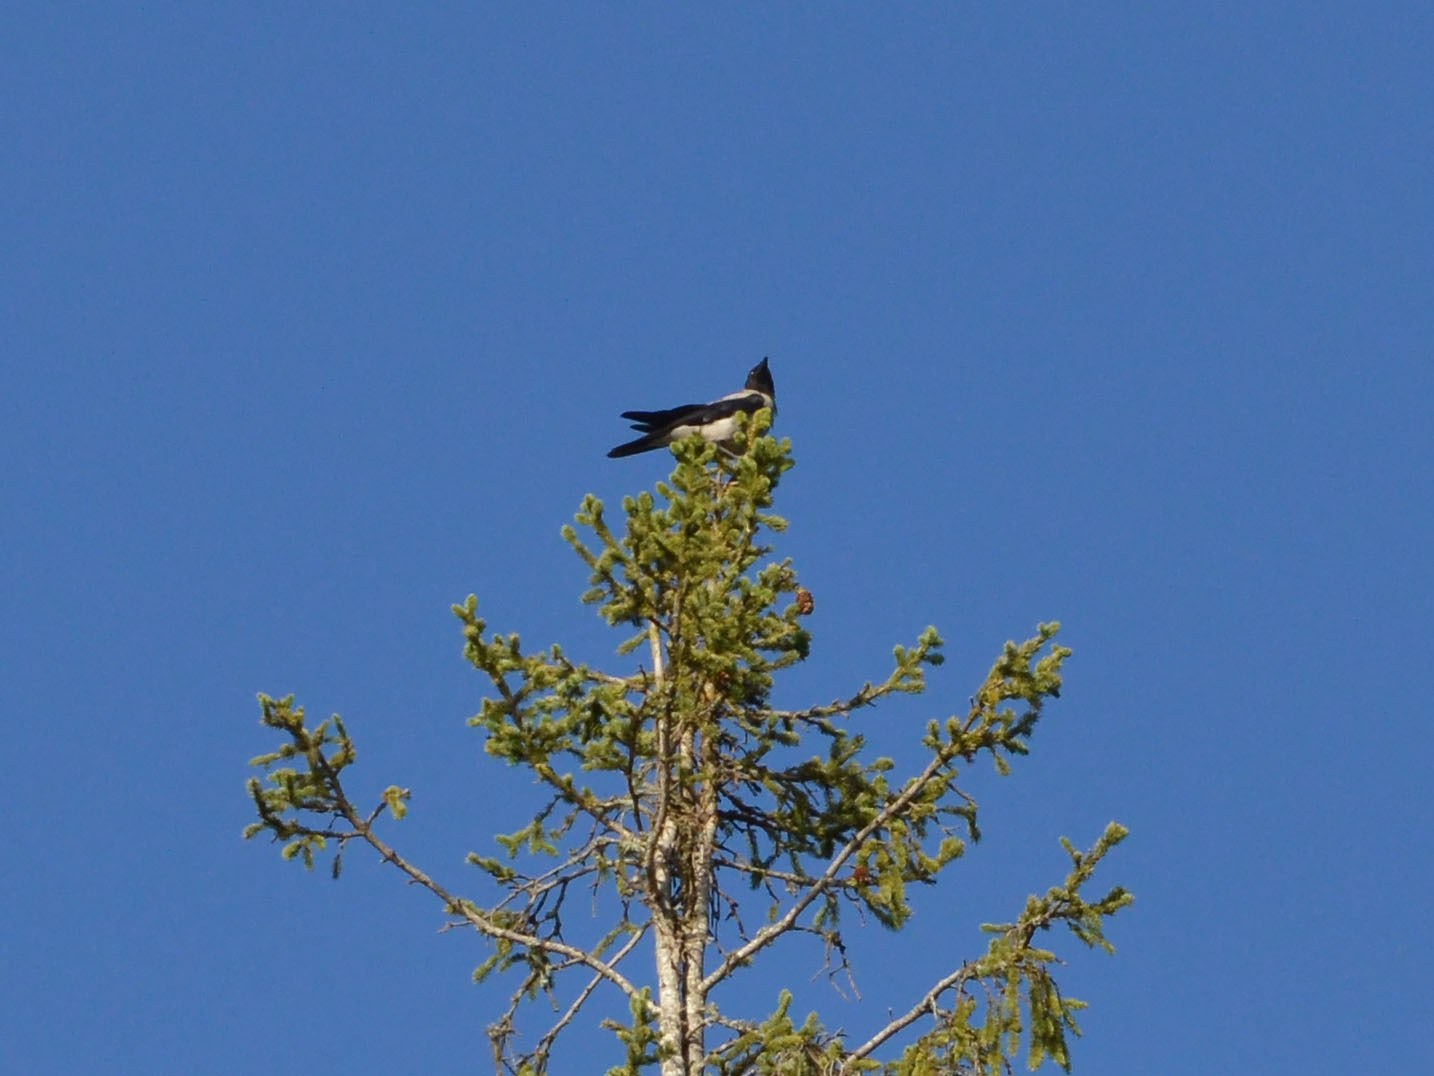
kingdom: Animalia
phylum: Chordata
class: Aves
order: Passeriformes
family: Corvidae
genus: Corvus
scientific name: Corvus cornix
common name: Hooded crow
